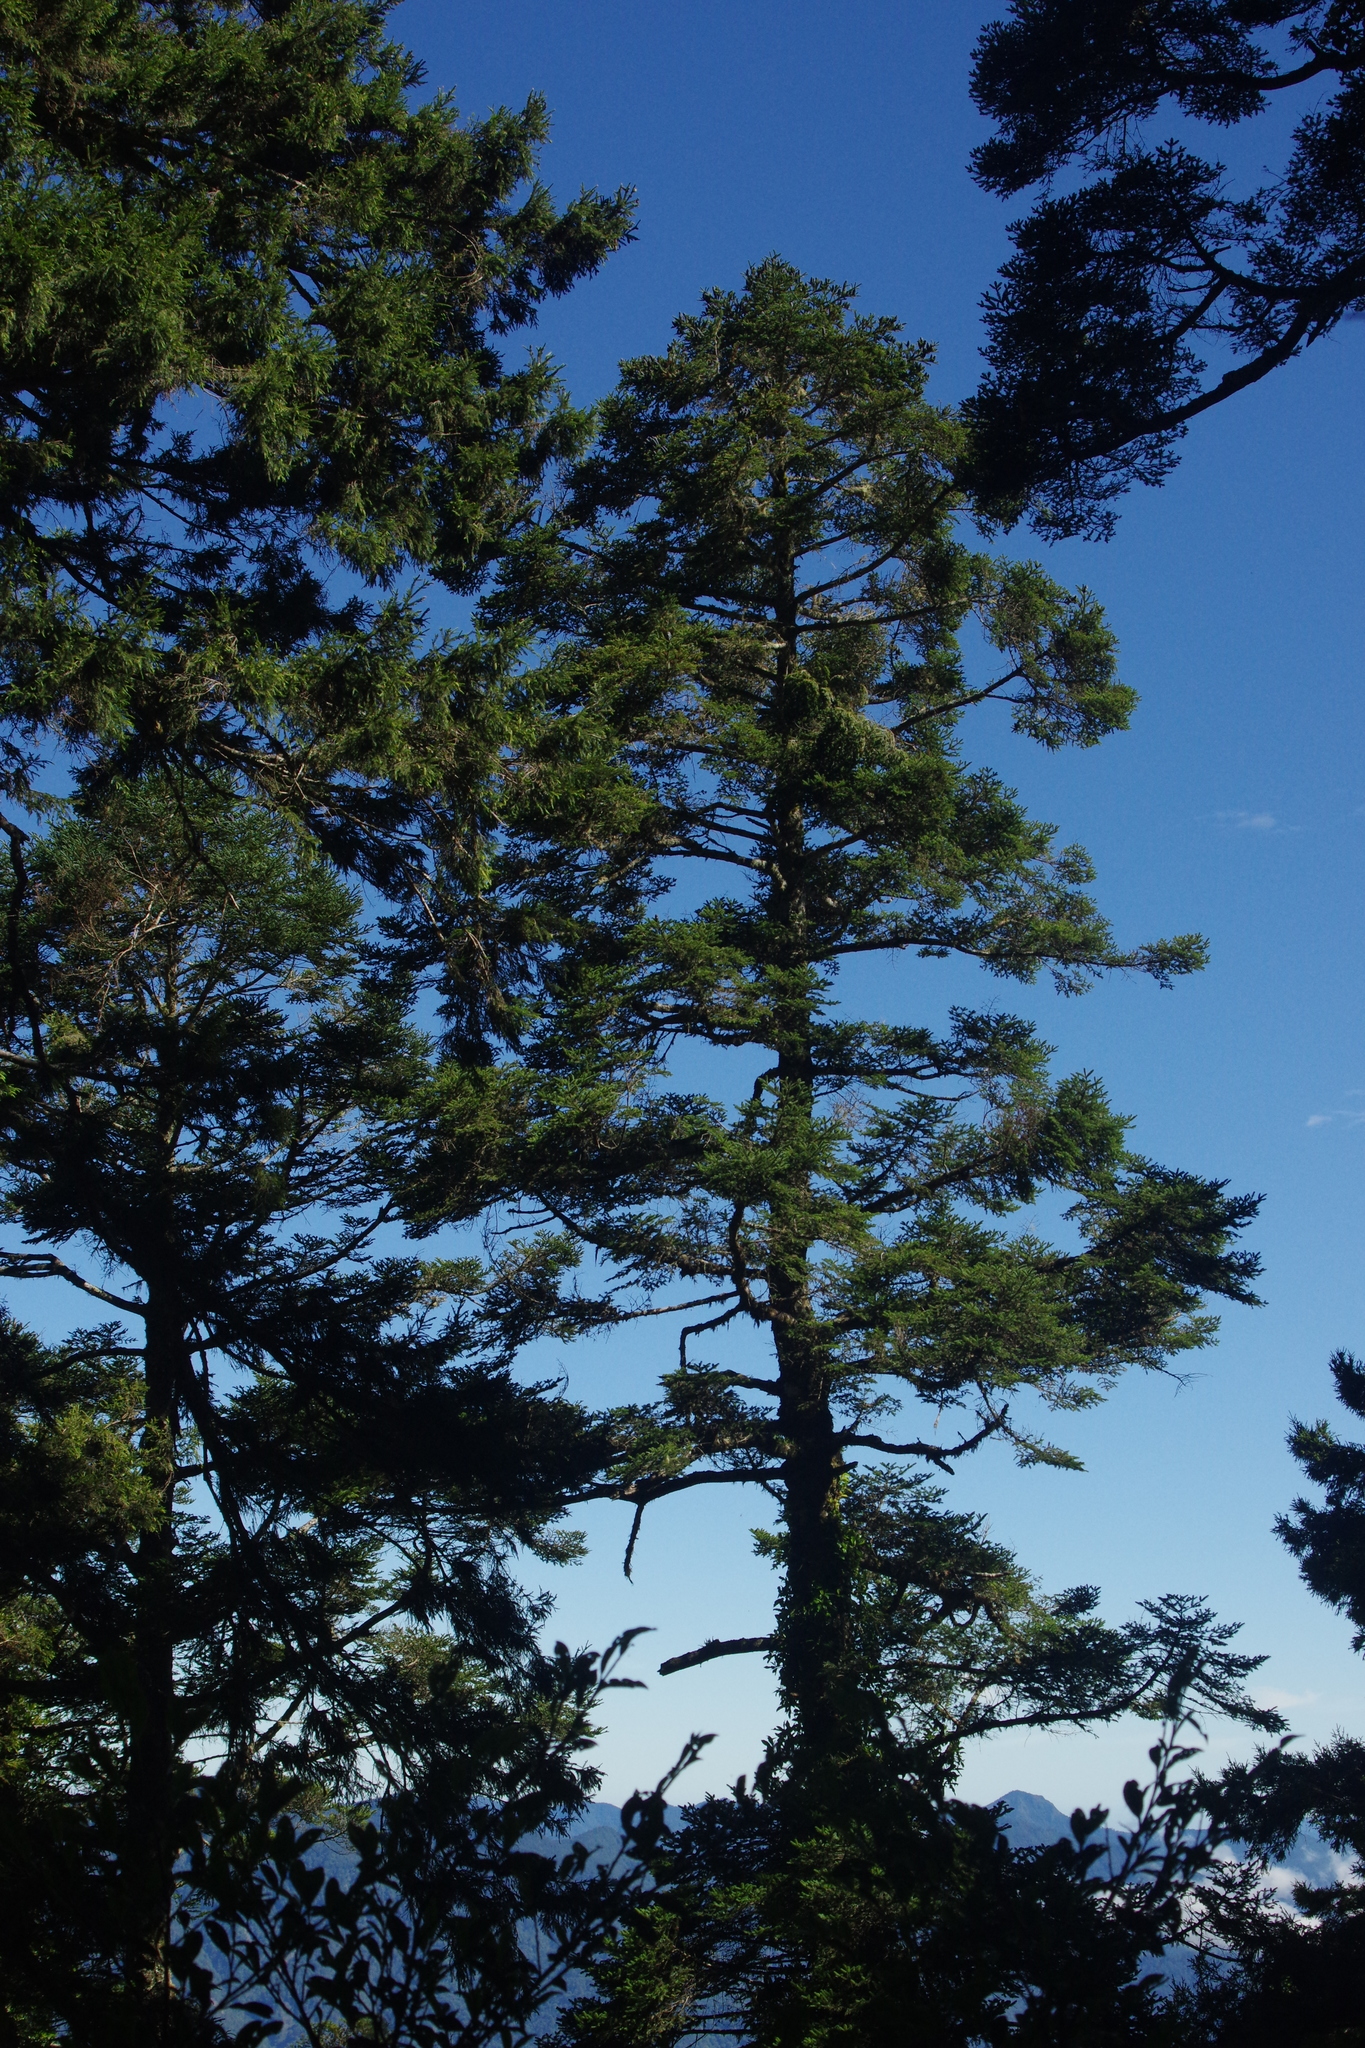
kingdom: Plantae
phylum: Tracheophyta
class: Pinopsida
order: Pinales
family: Pinaceae
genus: Abies
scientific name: Abies kawakamii
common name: Taiwan fir
